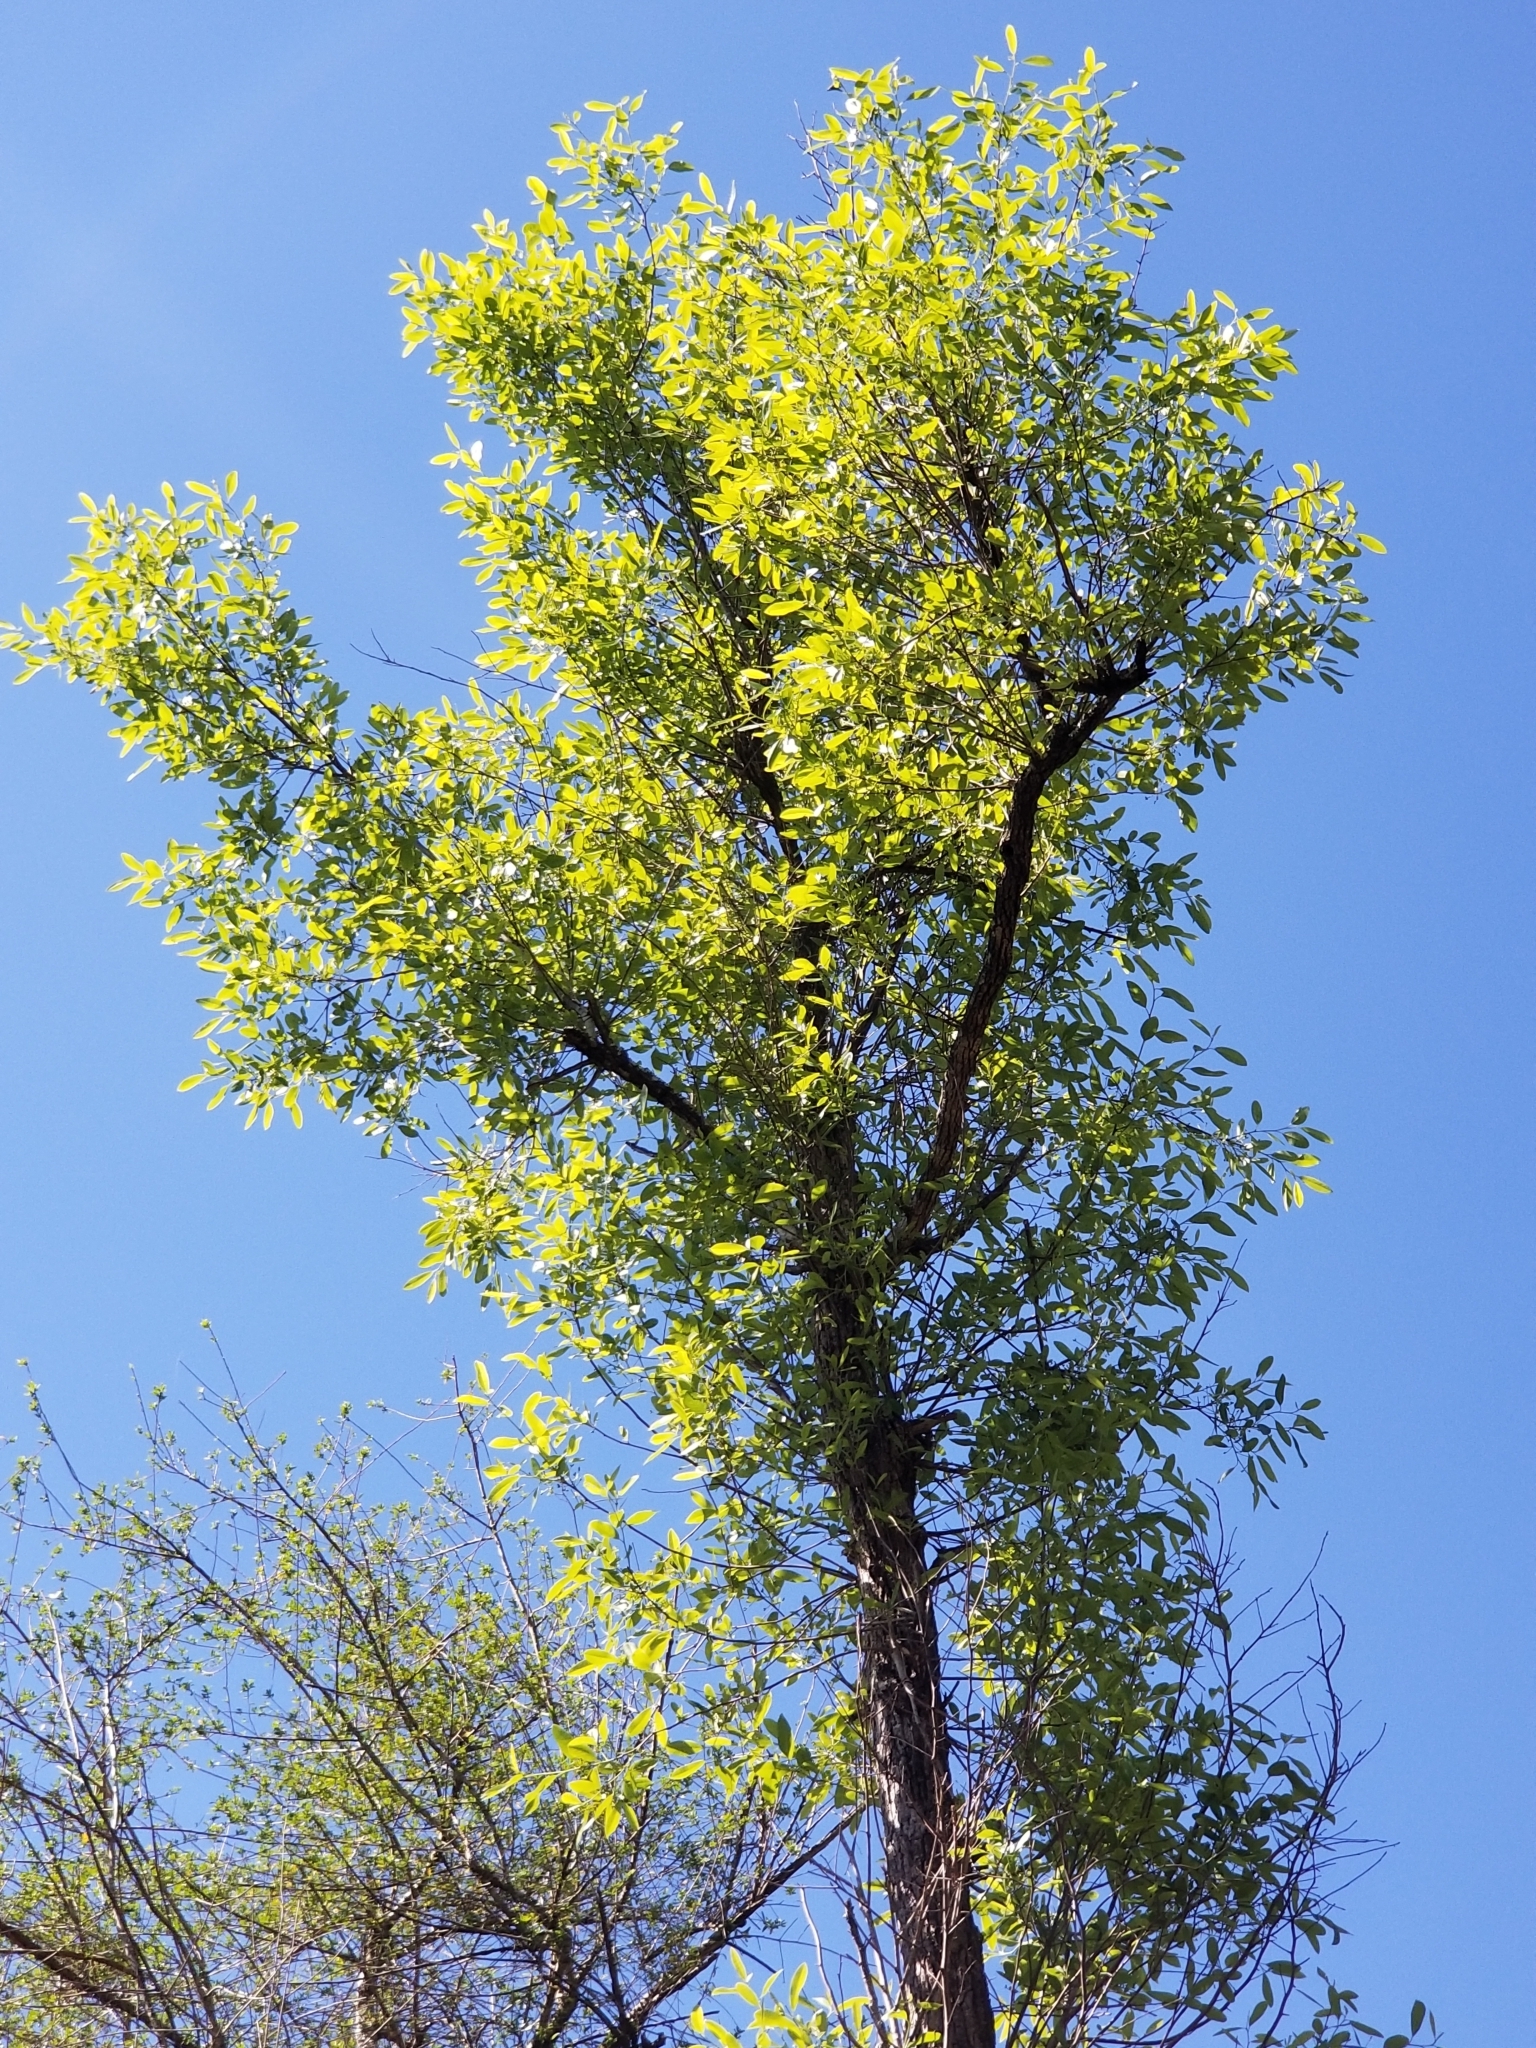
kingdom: Plantae
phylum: Tracheophyta
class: Magnoliopsida
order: Cornales
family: Nyssaceae
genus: Nyssa
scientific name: Nyssa biflora
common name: Swamp blackgum
